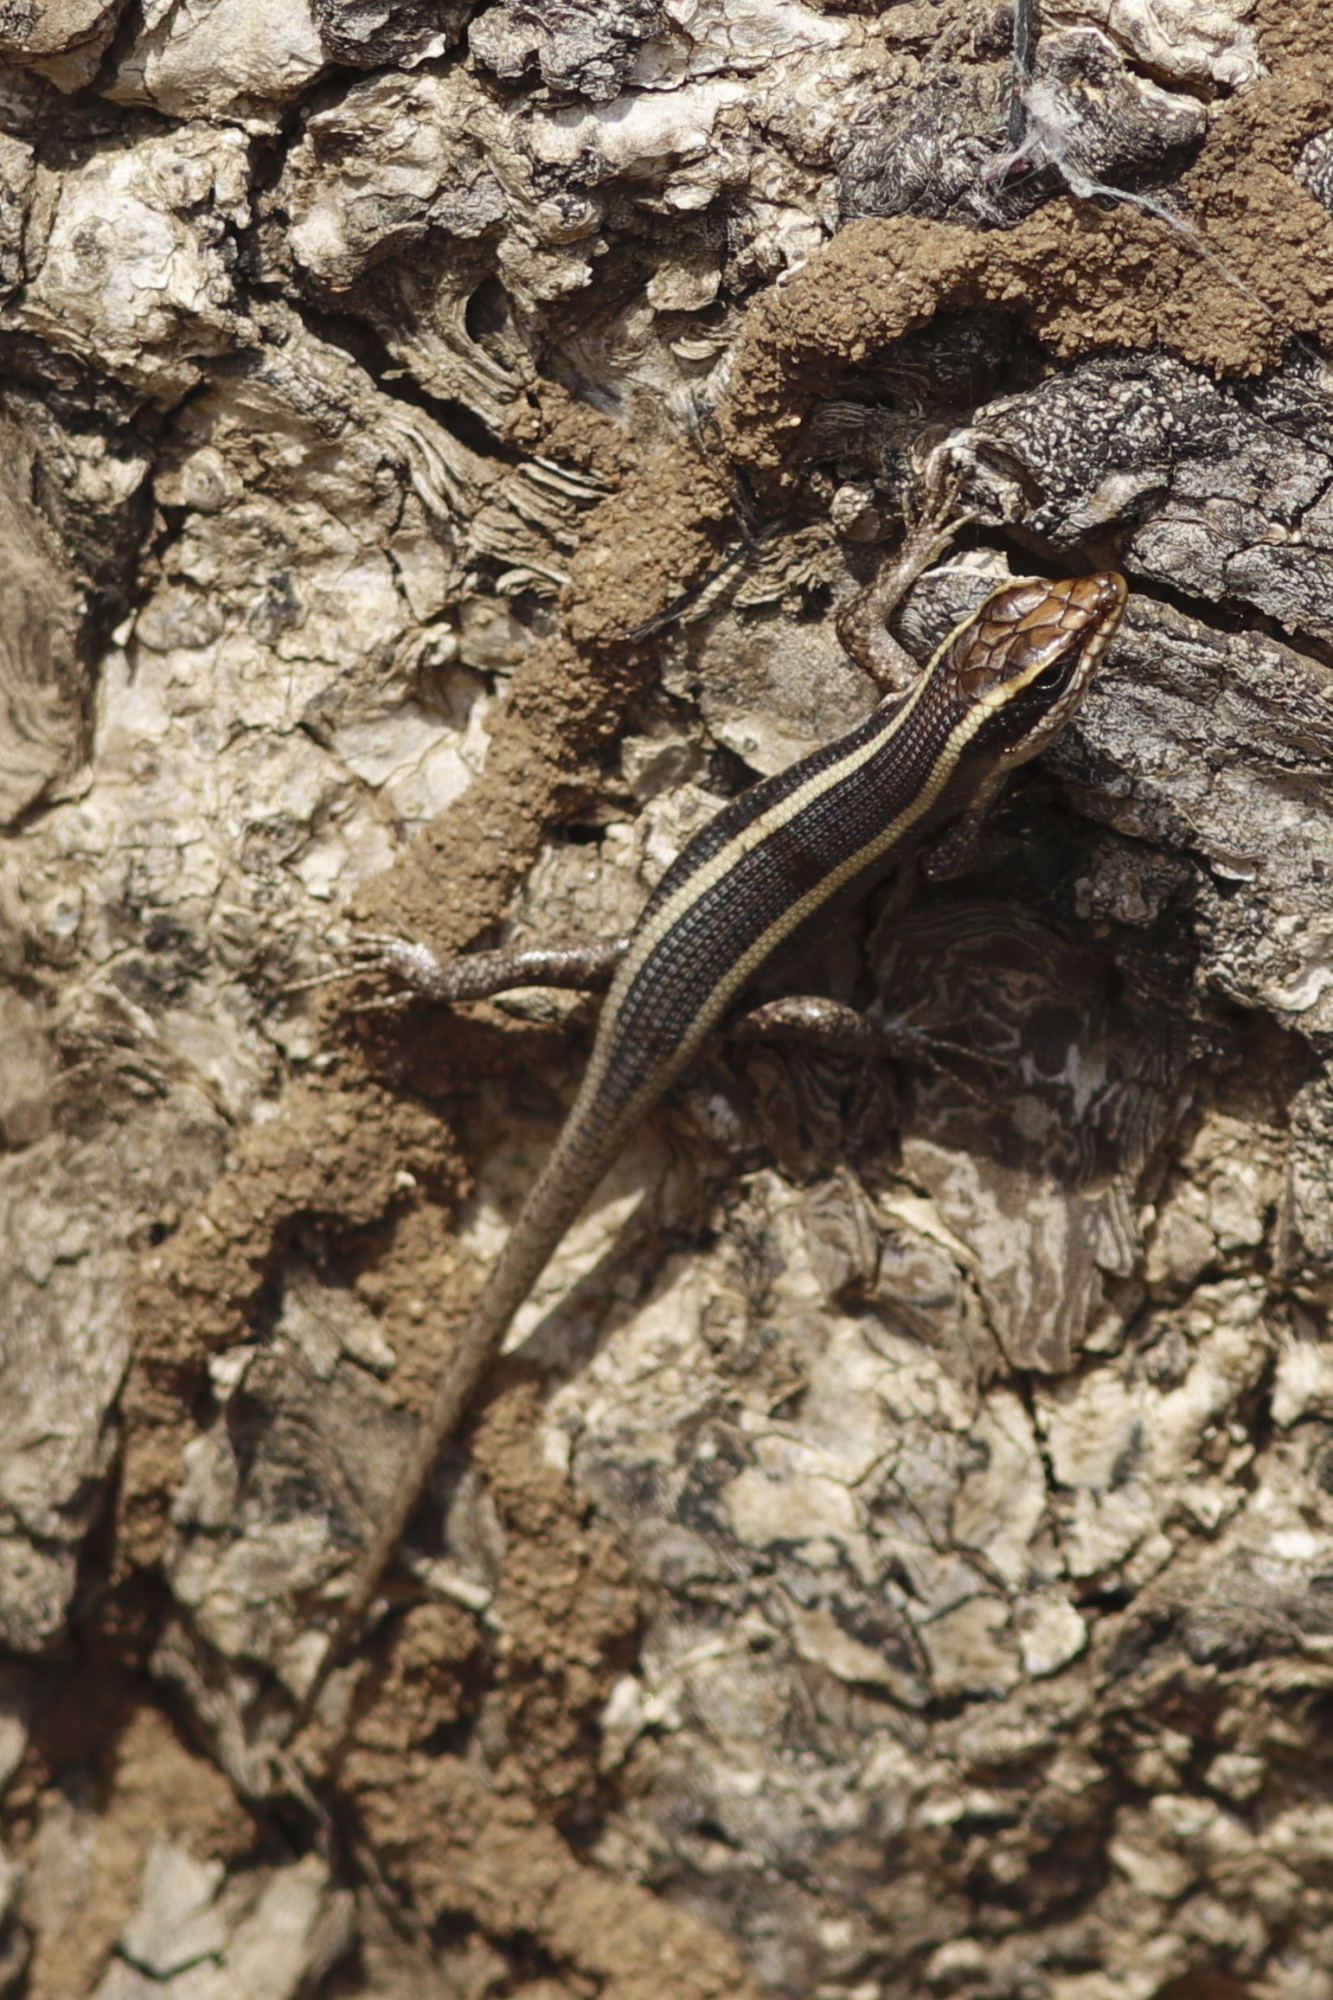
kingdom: Animalia
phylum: Chordata
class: Squamata
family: Scincidae
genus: Trachylepis
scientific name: Trachylepis striata
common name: African striped mabuya
